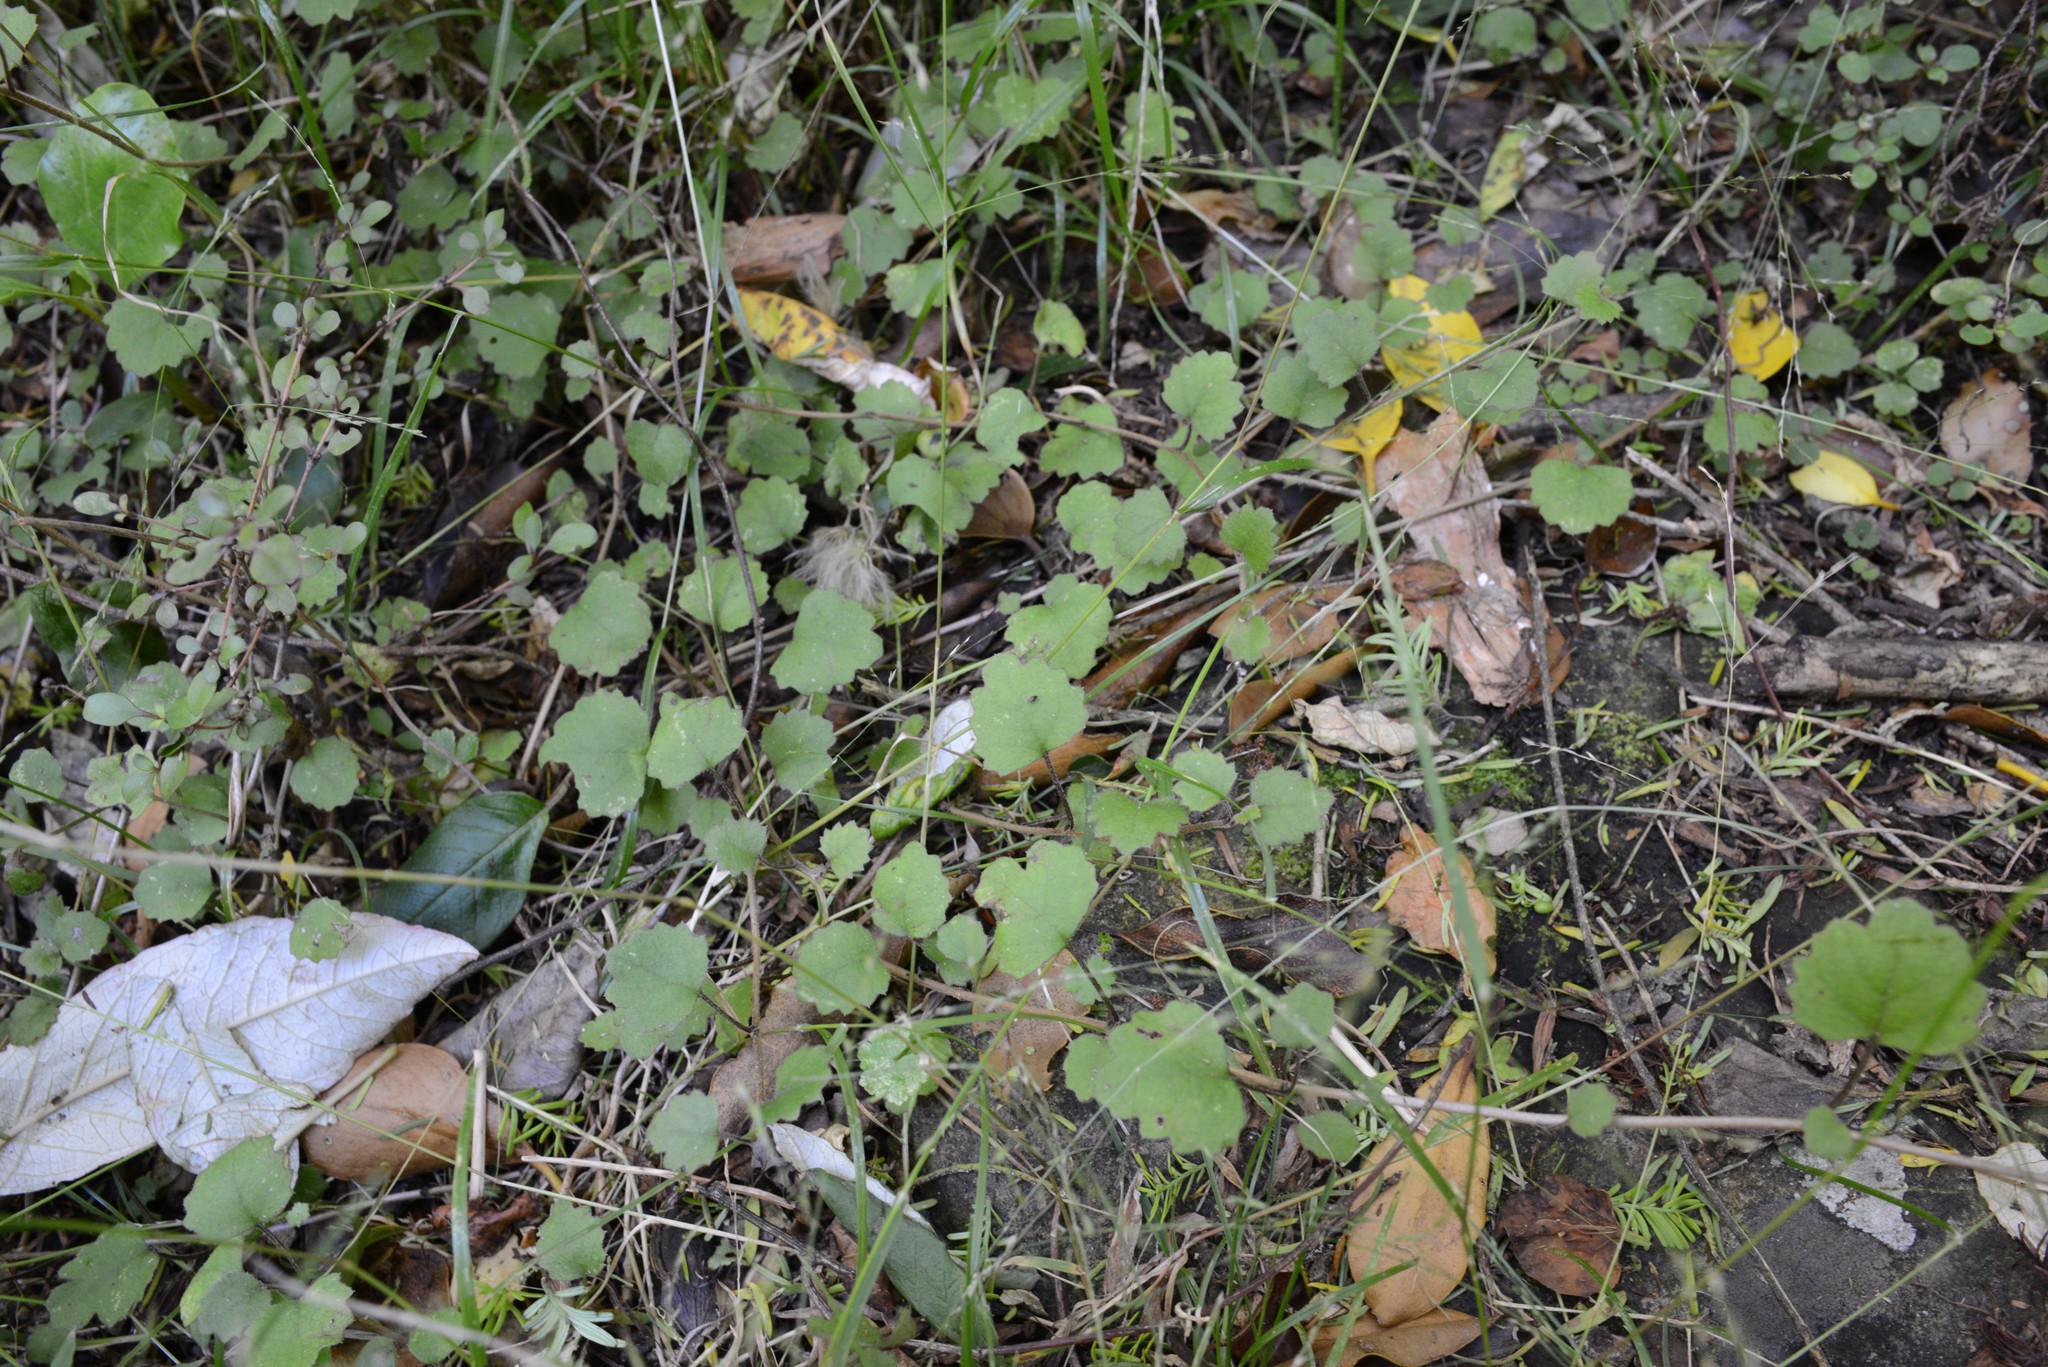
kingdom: Plantae
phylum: Tracheophyta
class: Magnoliopsida
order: Asterales
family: Asteraceae
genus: Brachyglottis
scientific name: Brachyglottis sciadophila
